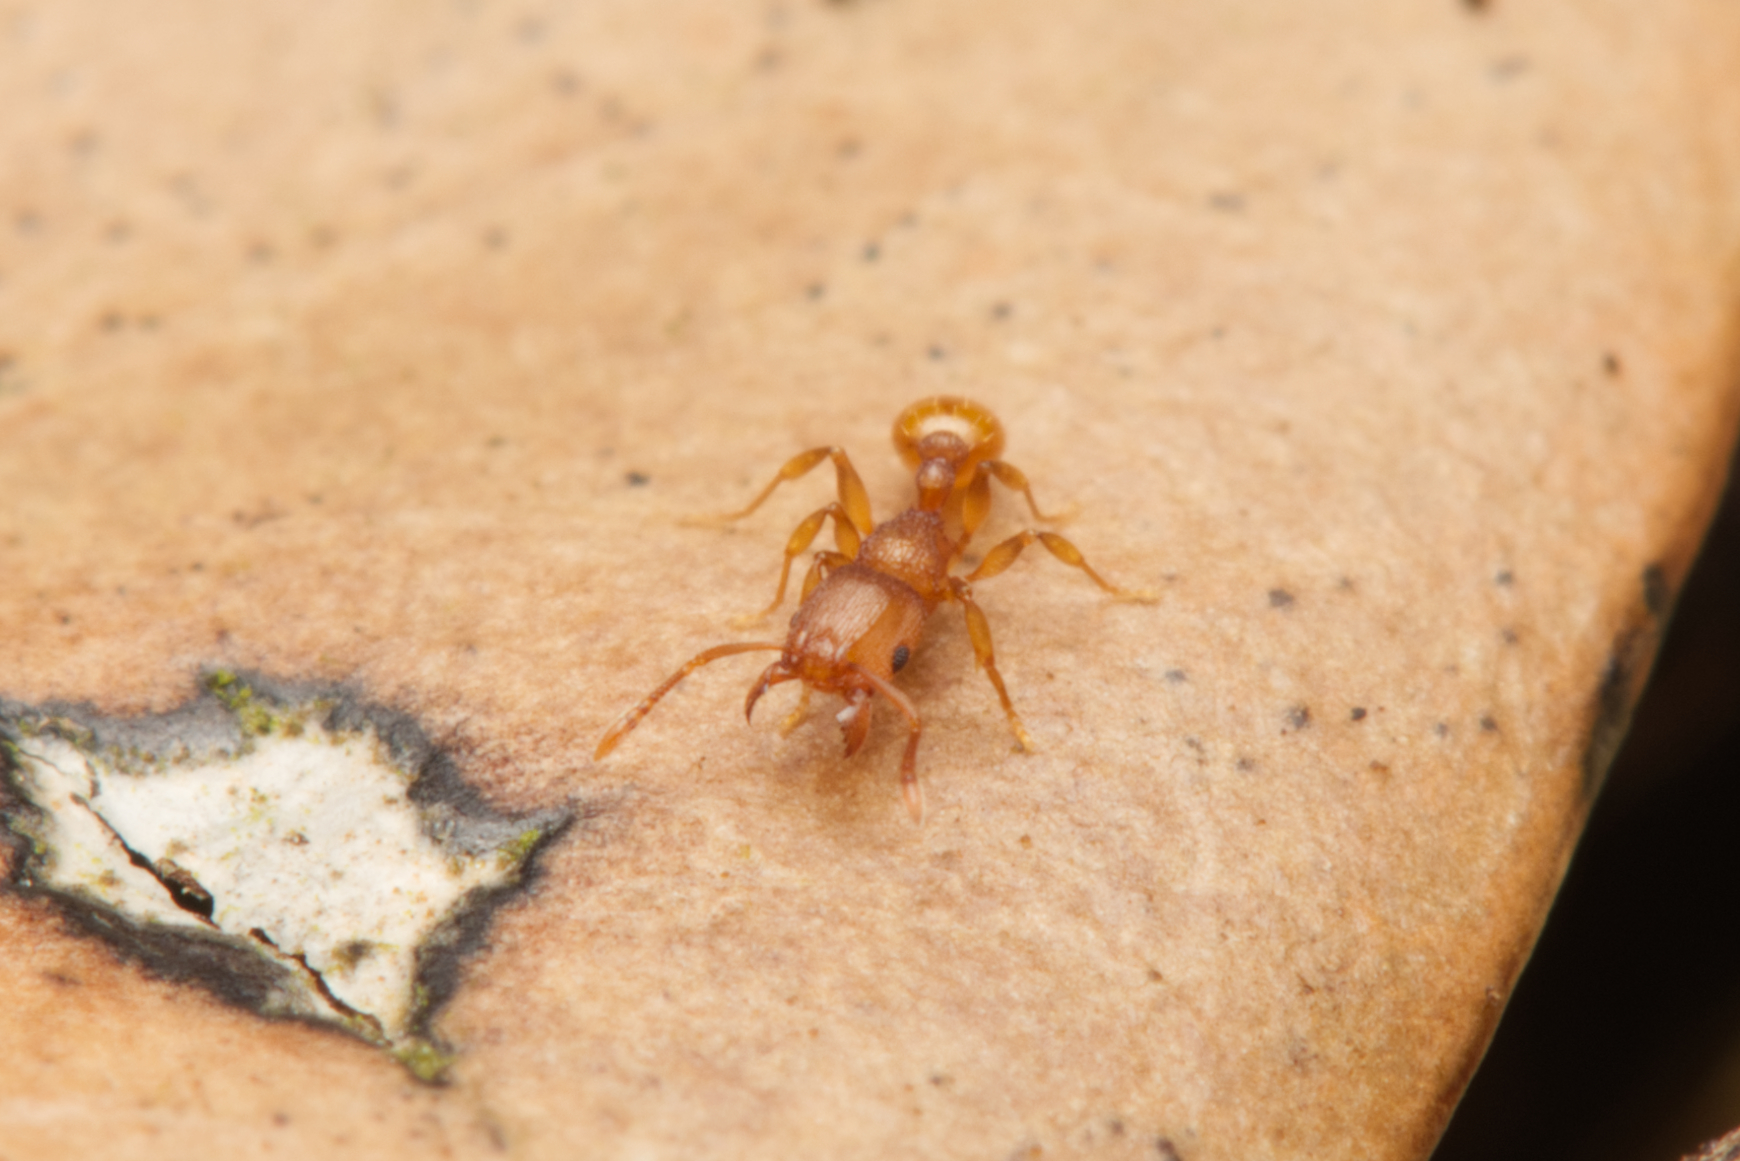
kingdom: Animalia
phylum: Arthropoda
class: Insecta
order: Hymenoptera
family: Formicidae
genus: Tetramorium
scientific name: Tetramorium simillimum
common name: Ant
